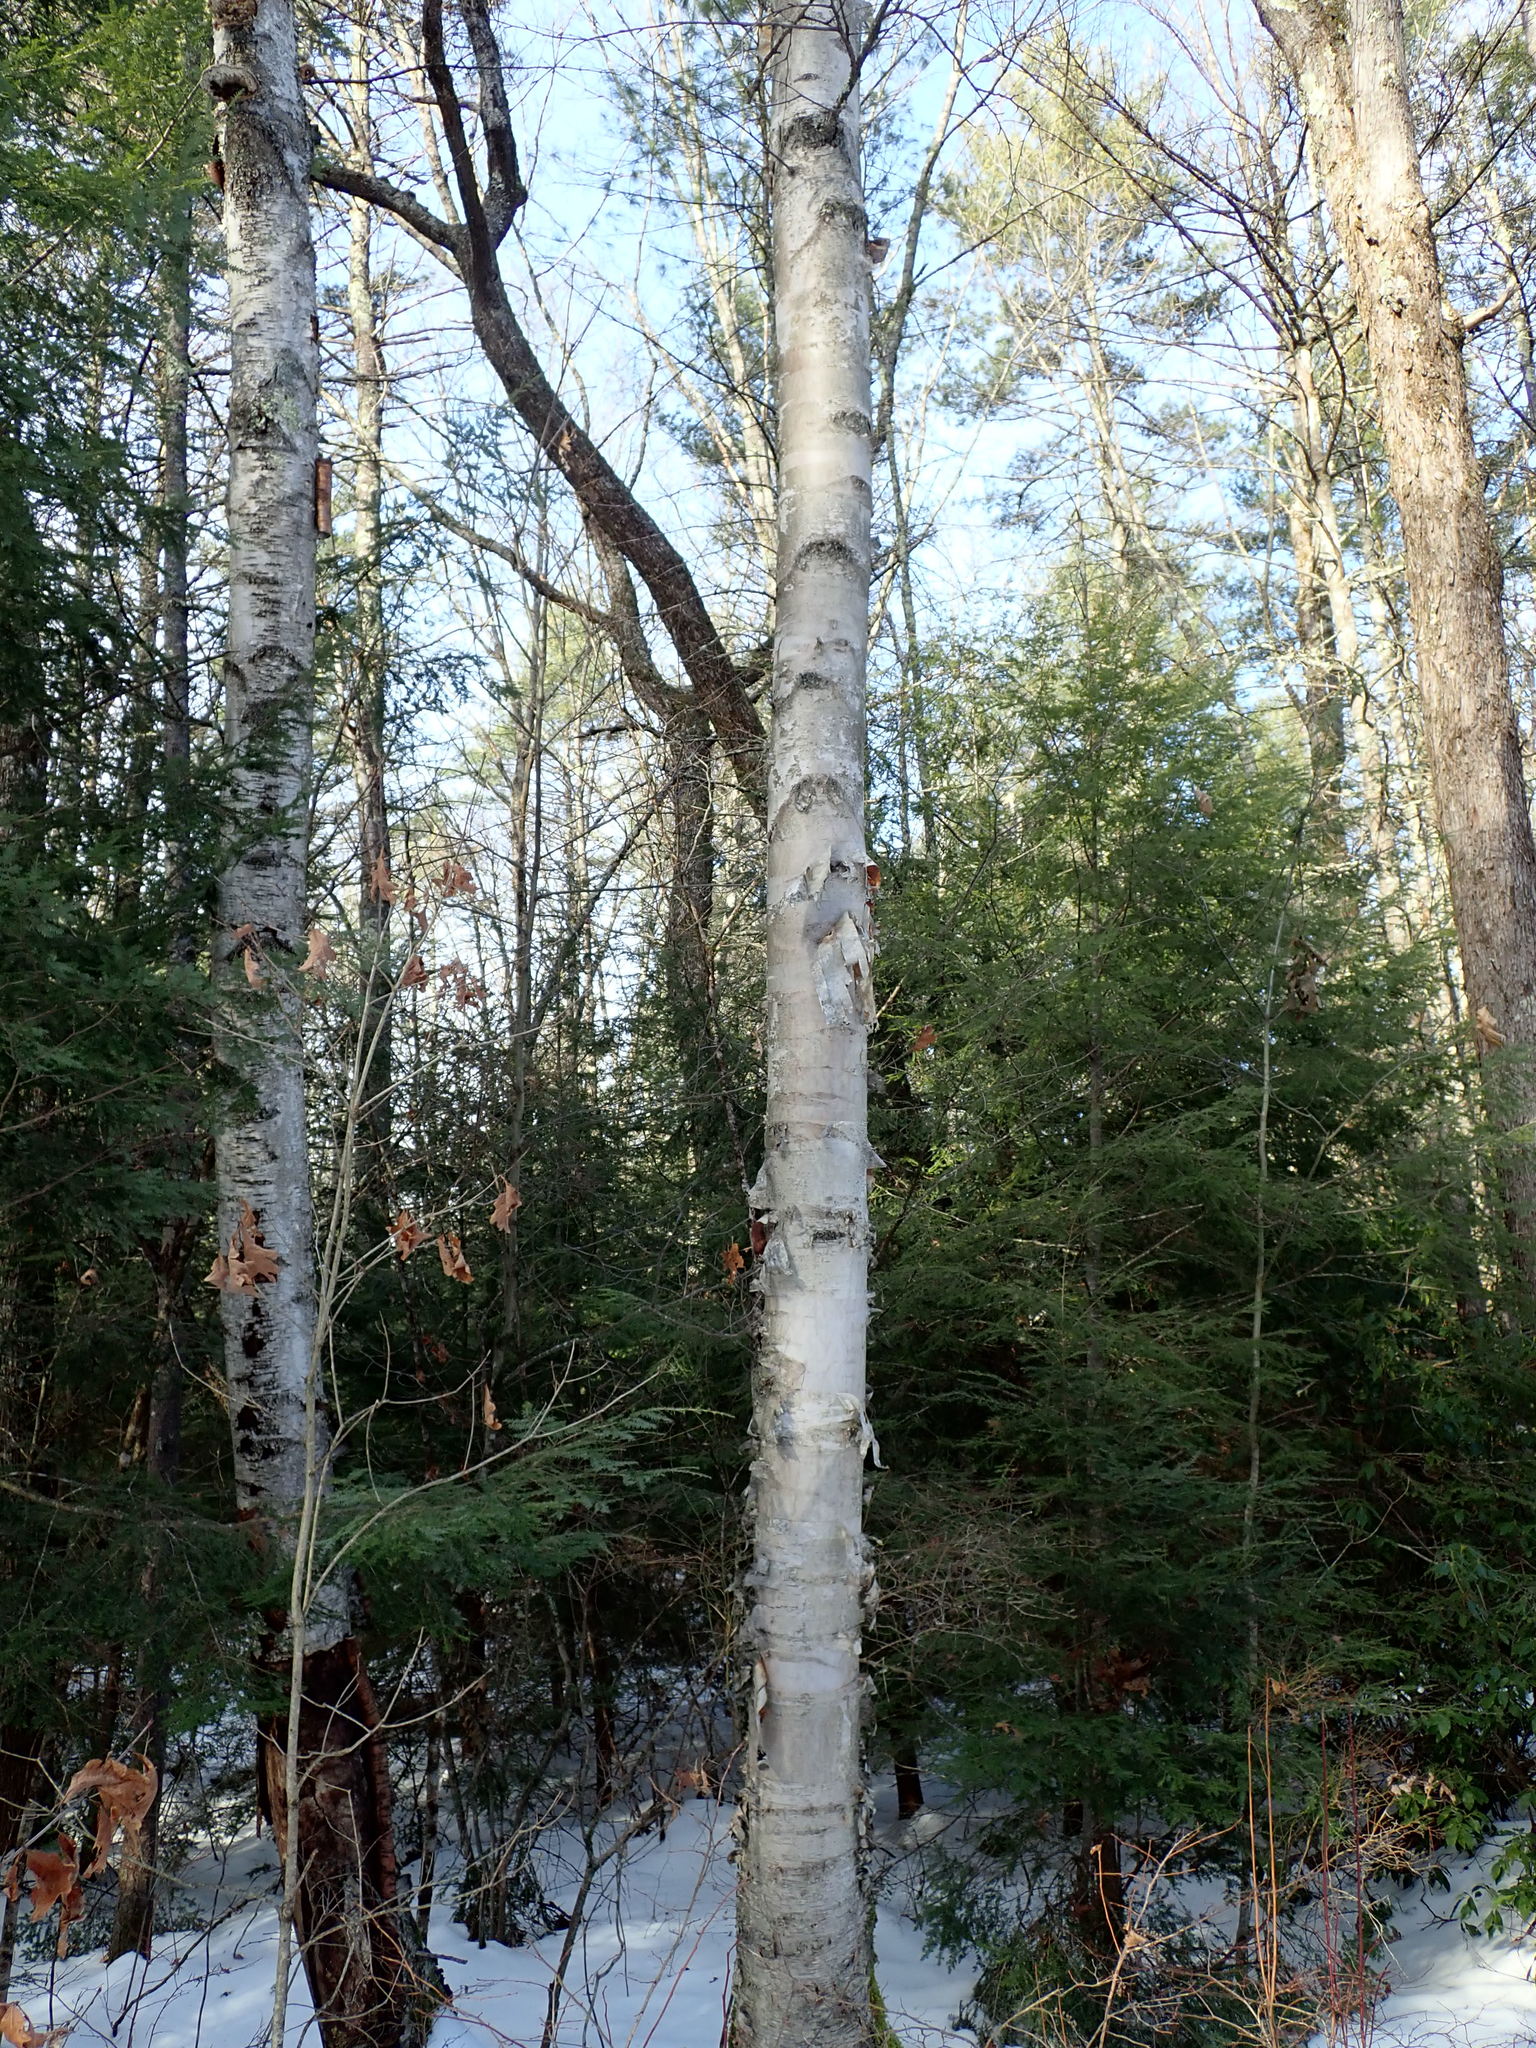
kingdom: Plantae
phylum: Tracheophyta
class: Magnoliopsida
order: Fagales
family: Betulaceae
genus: Betula
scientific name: Betula papyrifera
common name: Paper birch
